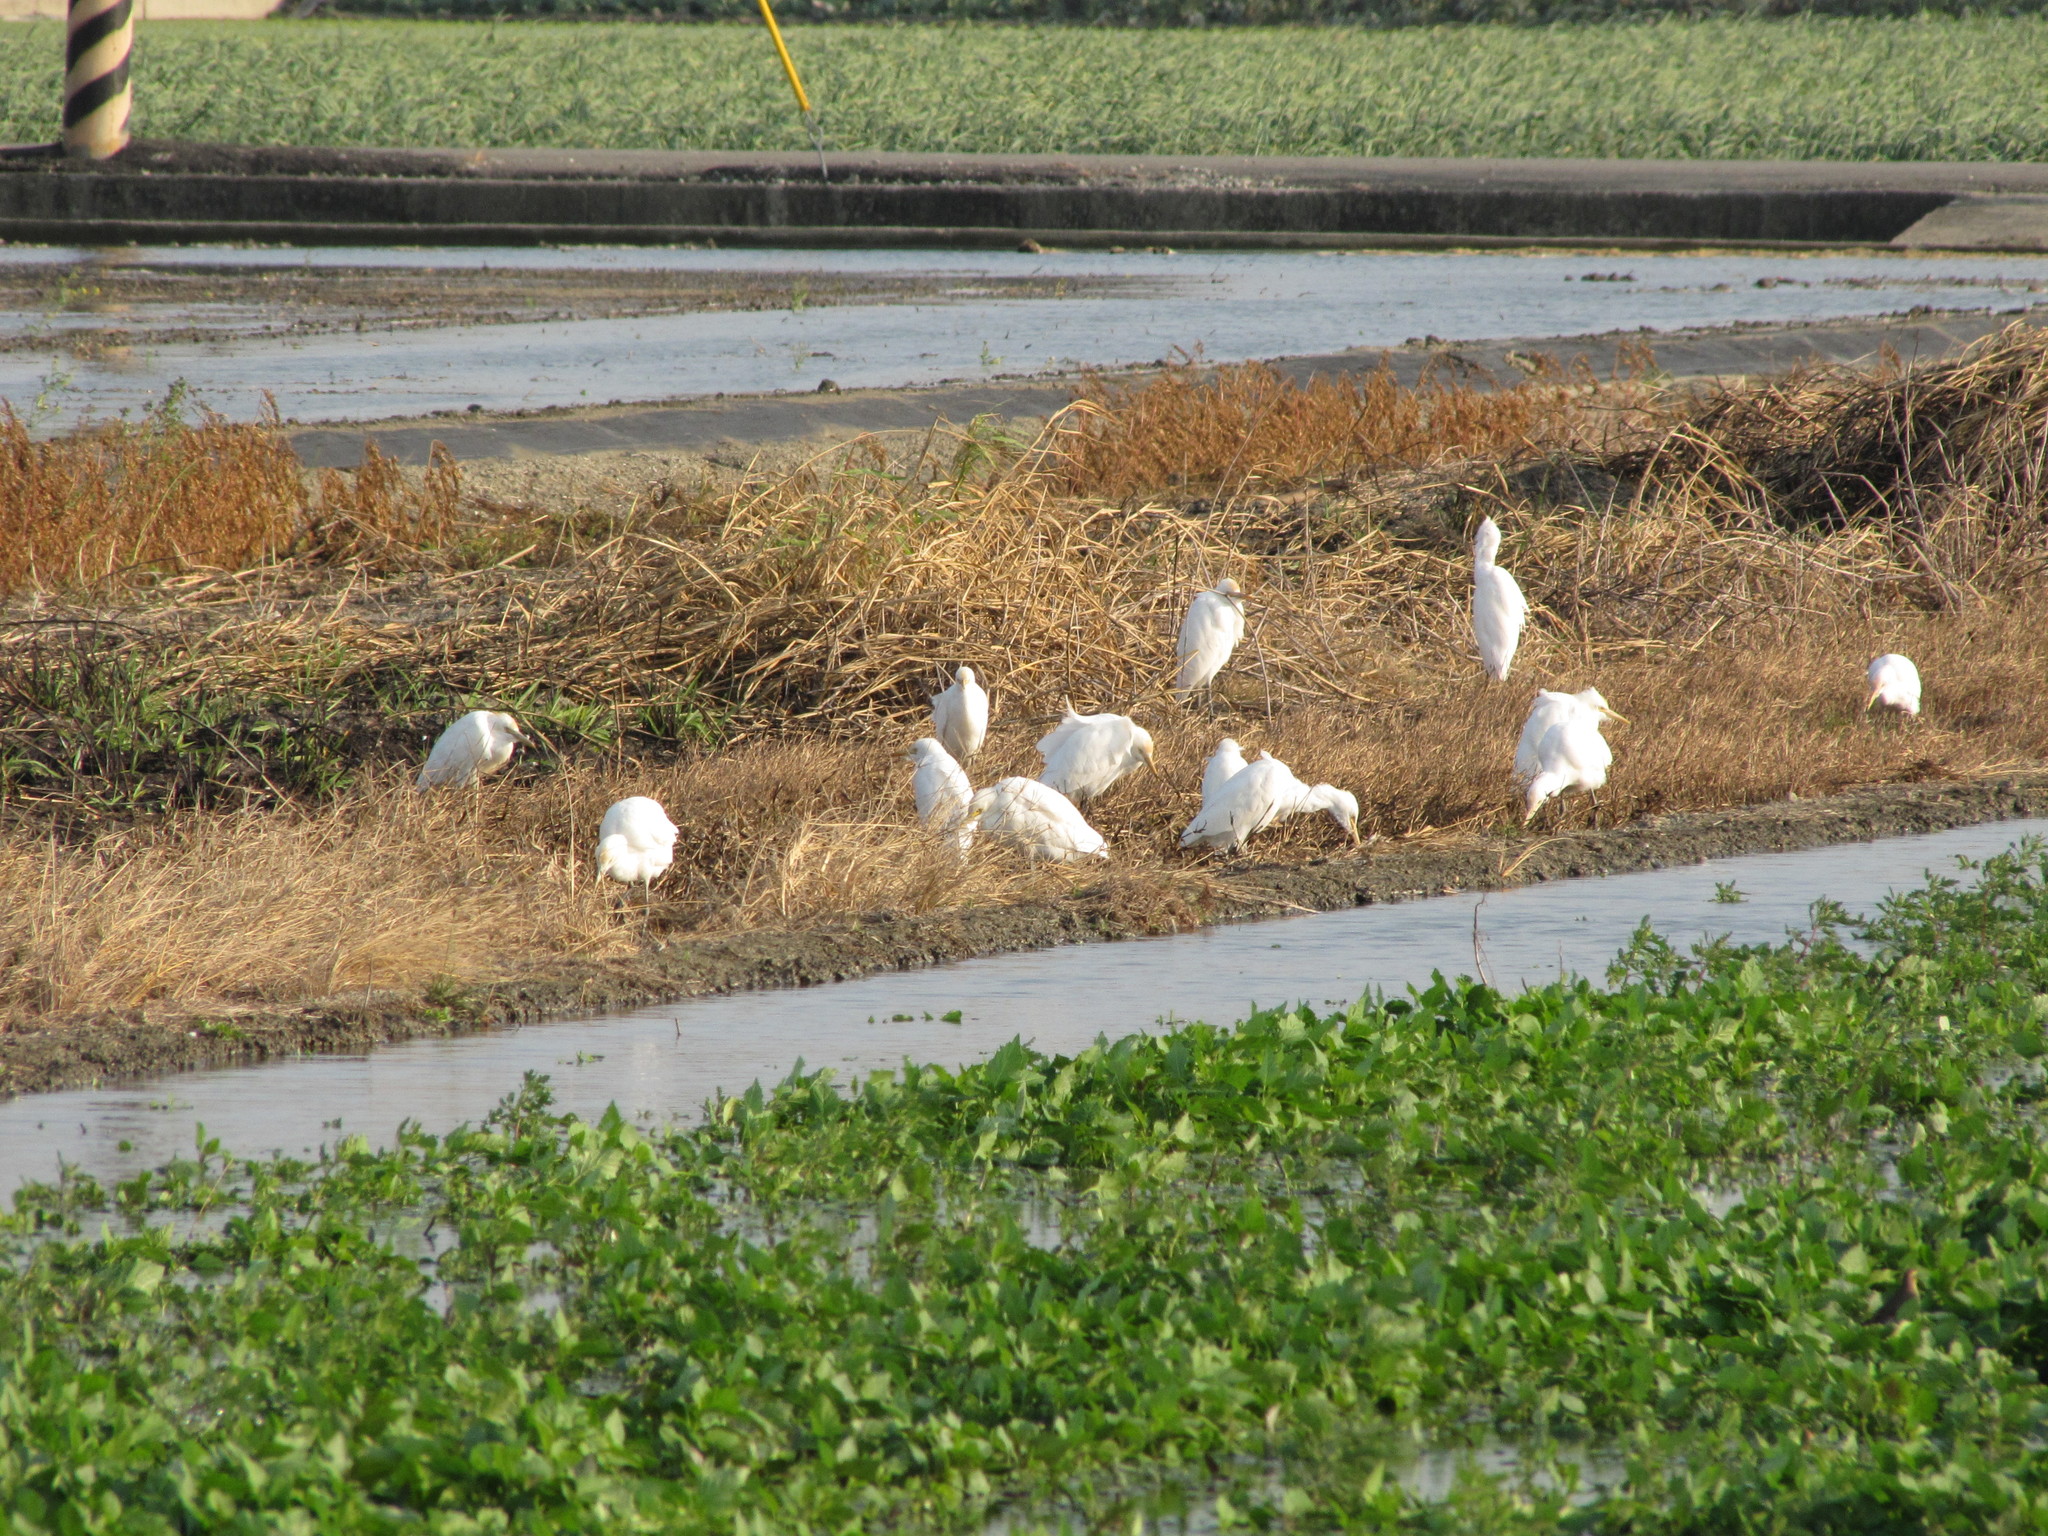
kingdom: Animalia
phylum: Chordata
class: Aves
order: Pelecaniformes
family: Ardeidae
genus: Bubulcus
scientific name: Bubulcus coromandus
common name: Eastern cattle egret
